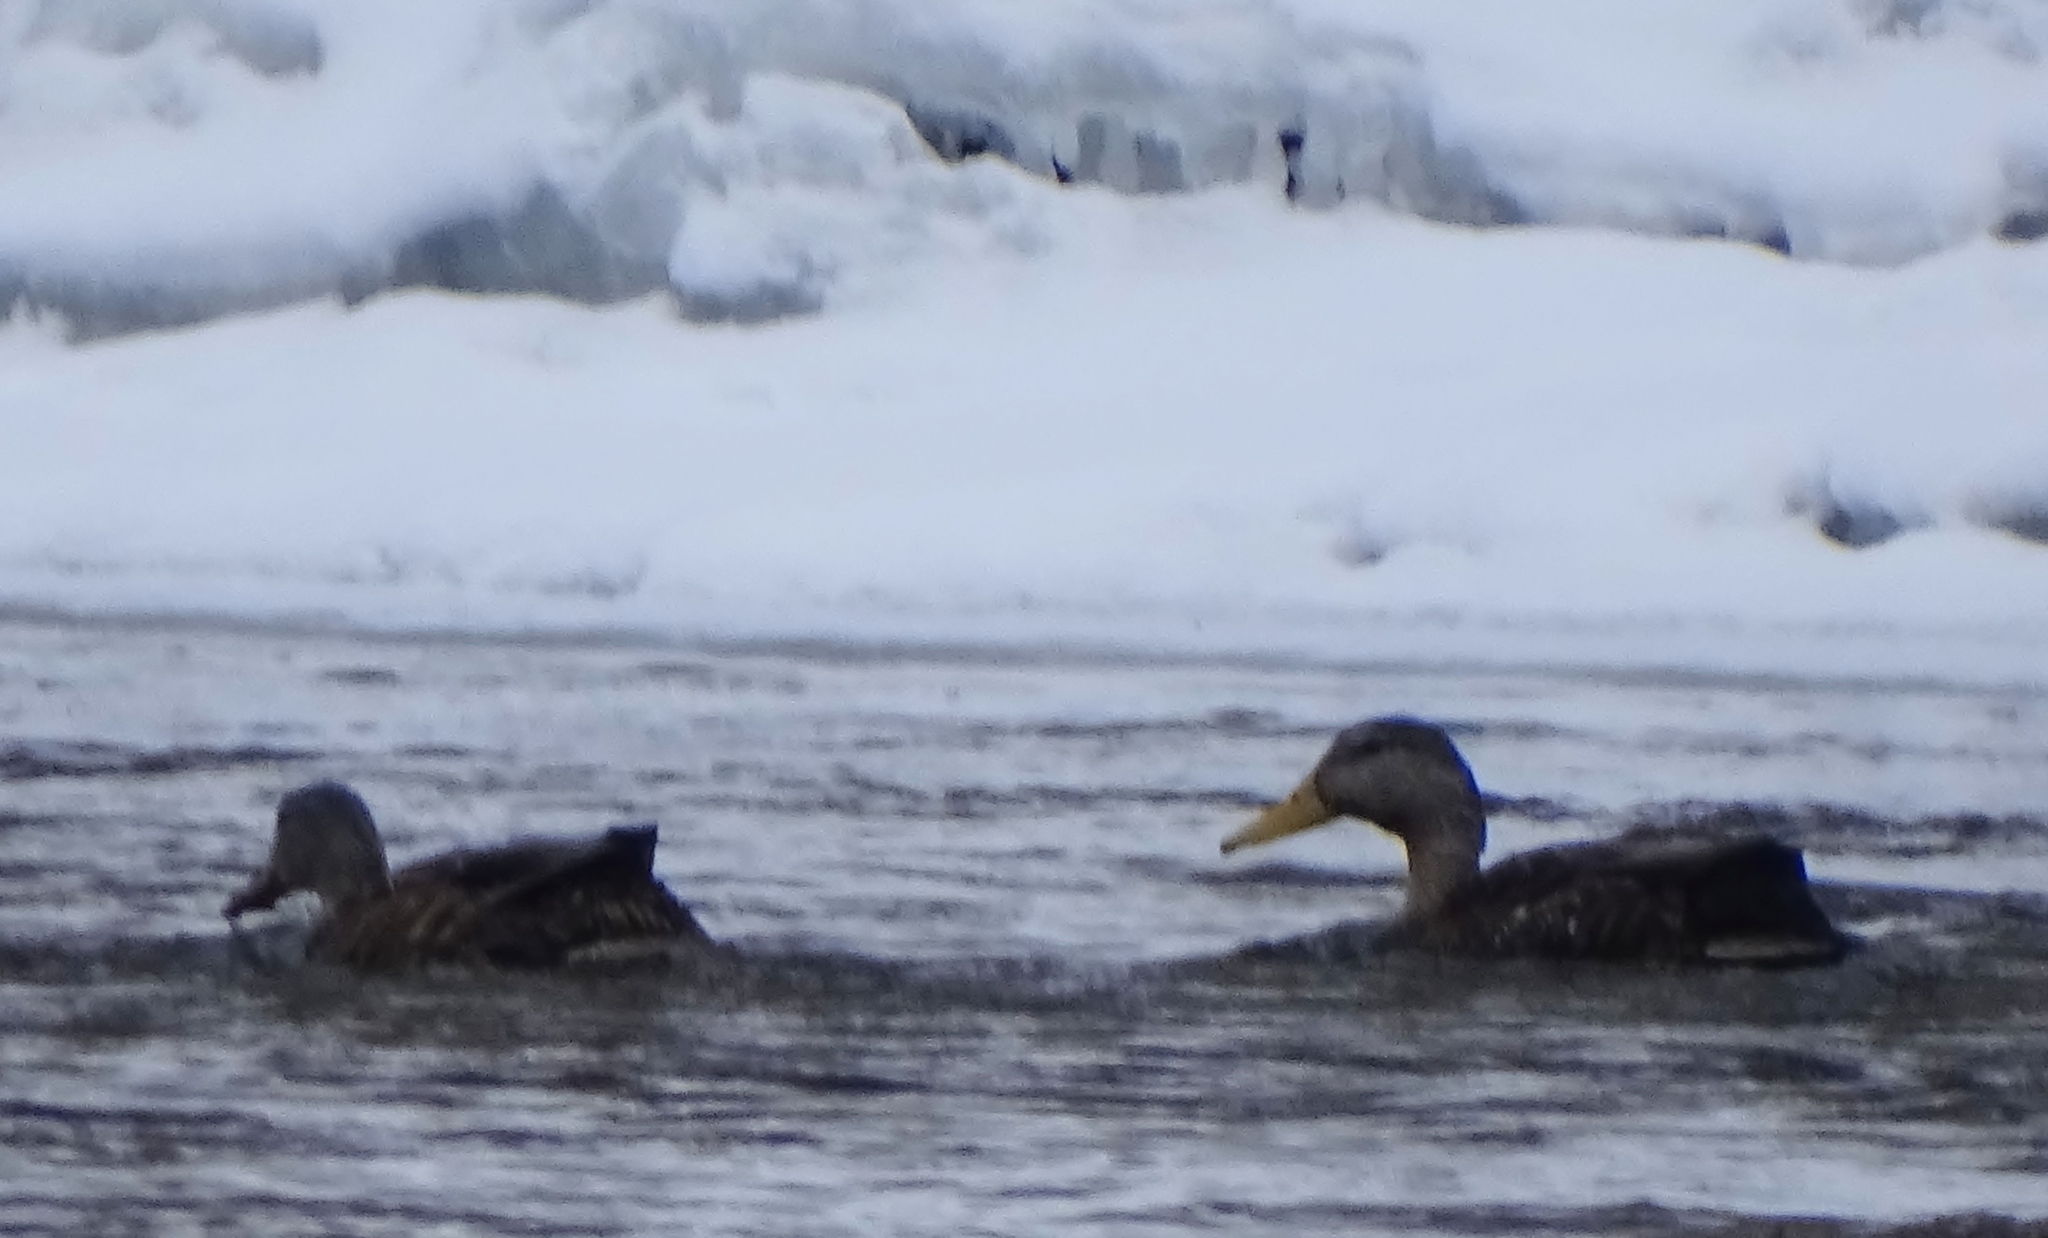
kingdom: Animalia
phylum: Chordata
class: Aves
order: Anseriformes
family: Anatidae
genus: Anas
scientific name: Anas rubripes
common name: American black duck
